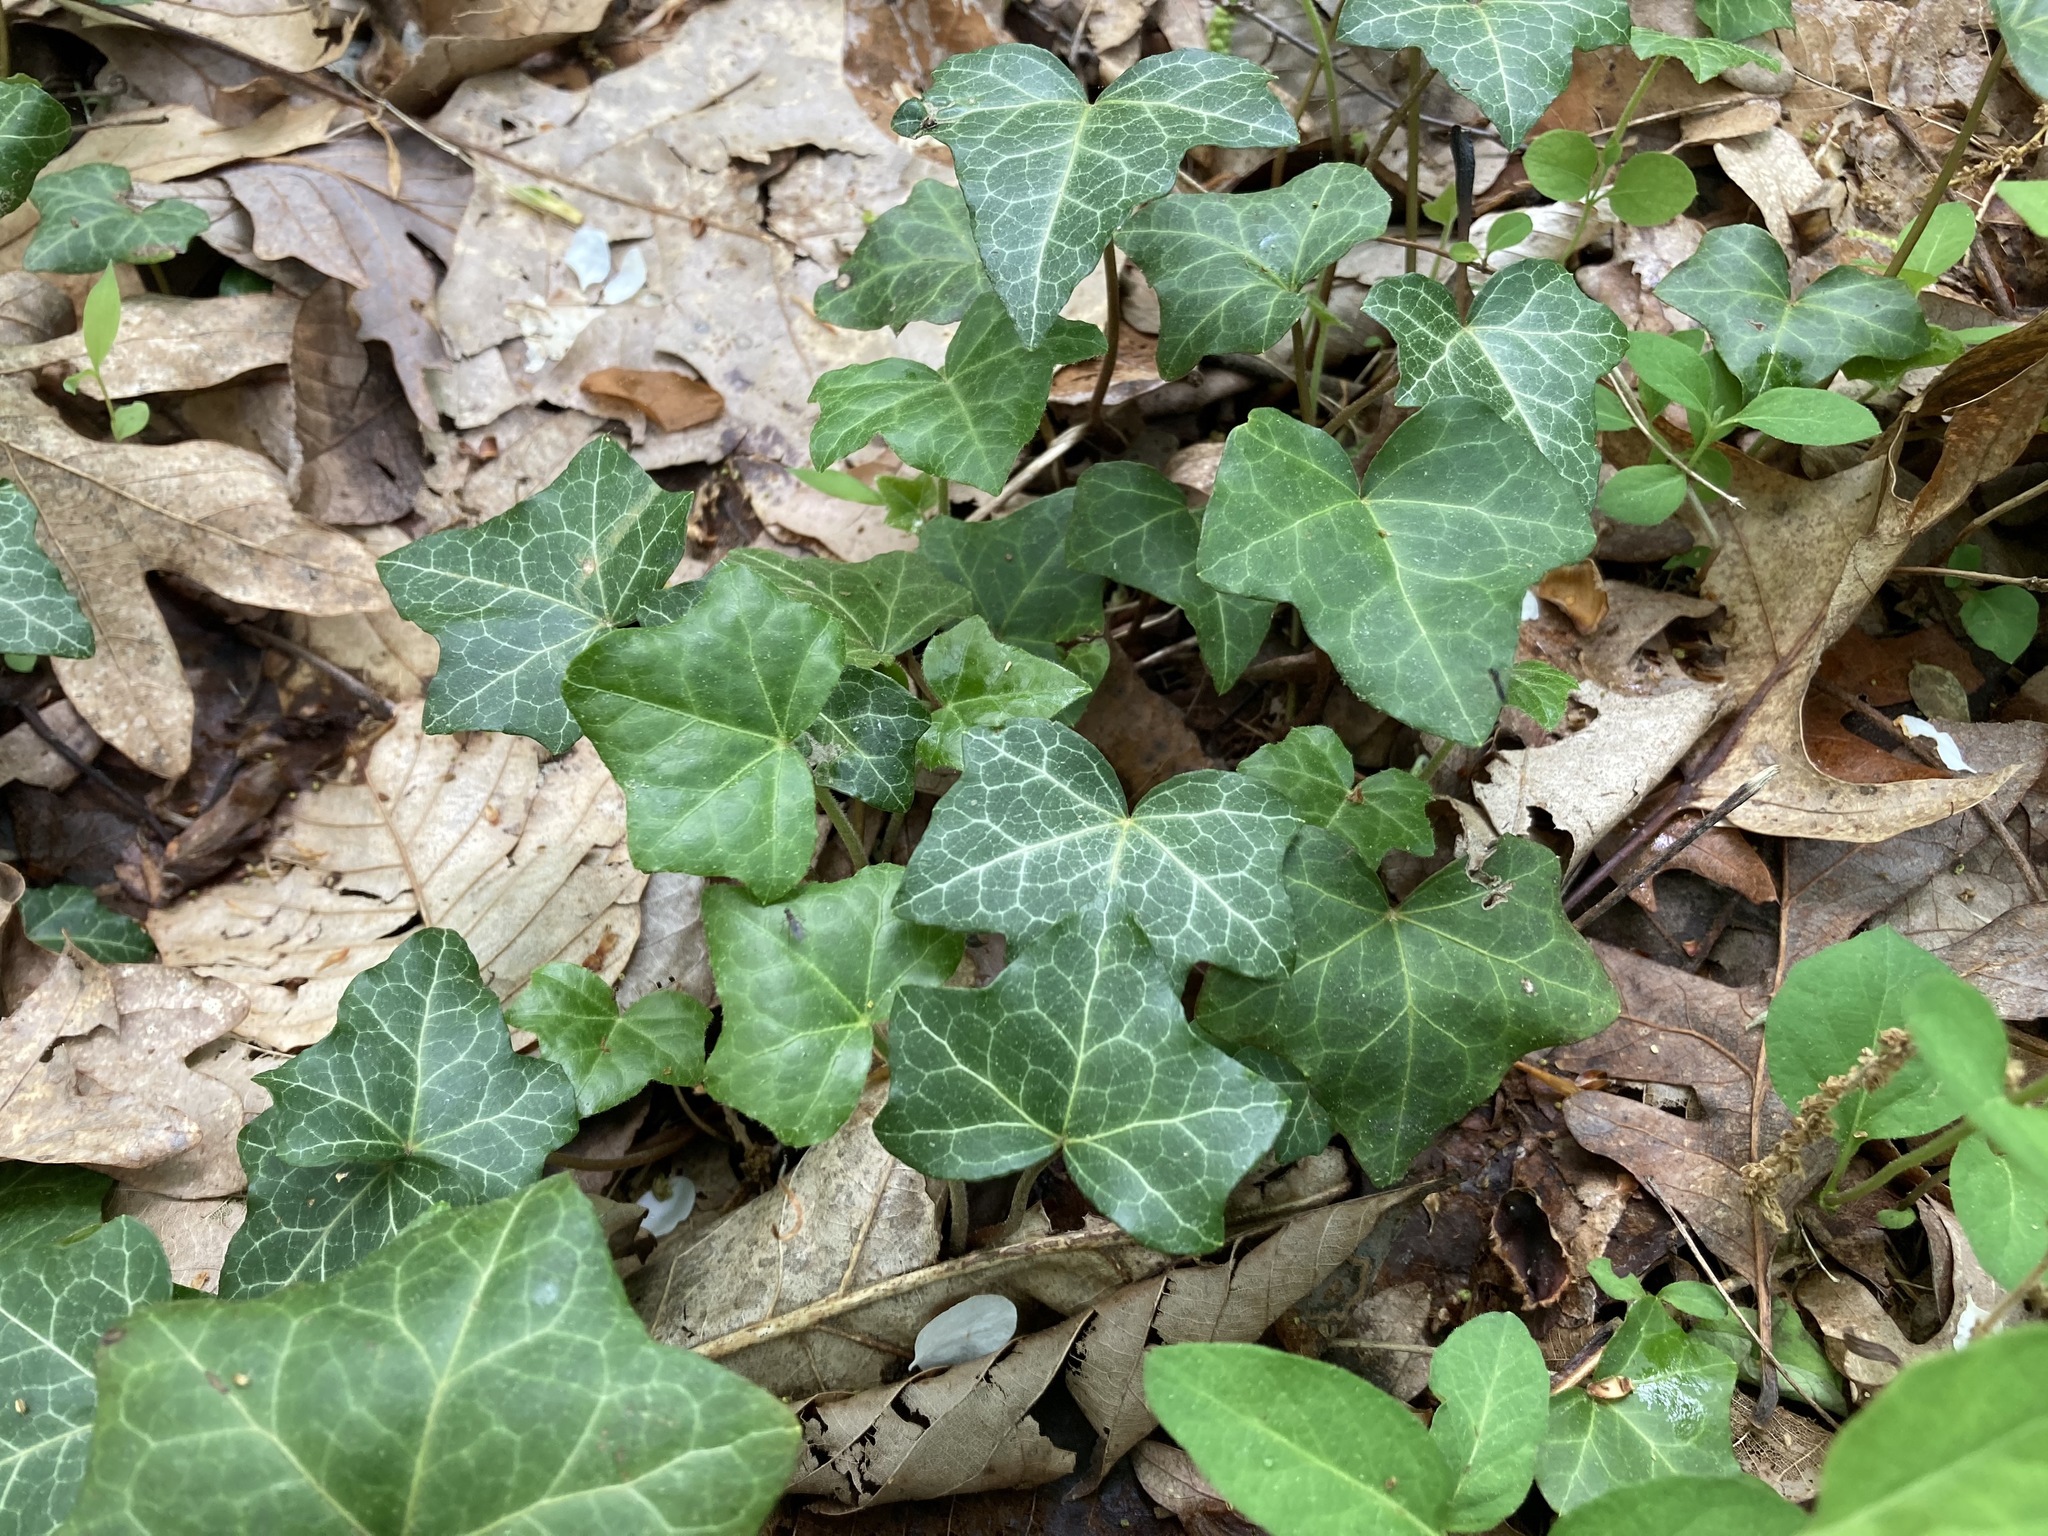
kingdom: Plantae
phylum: Tracheophyta
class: Magnoliopsida
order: Apiales
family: Araliaceae
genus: Hedera
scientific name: Hedera helix
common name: Ivy
